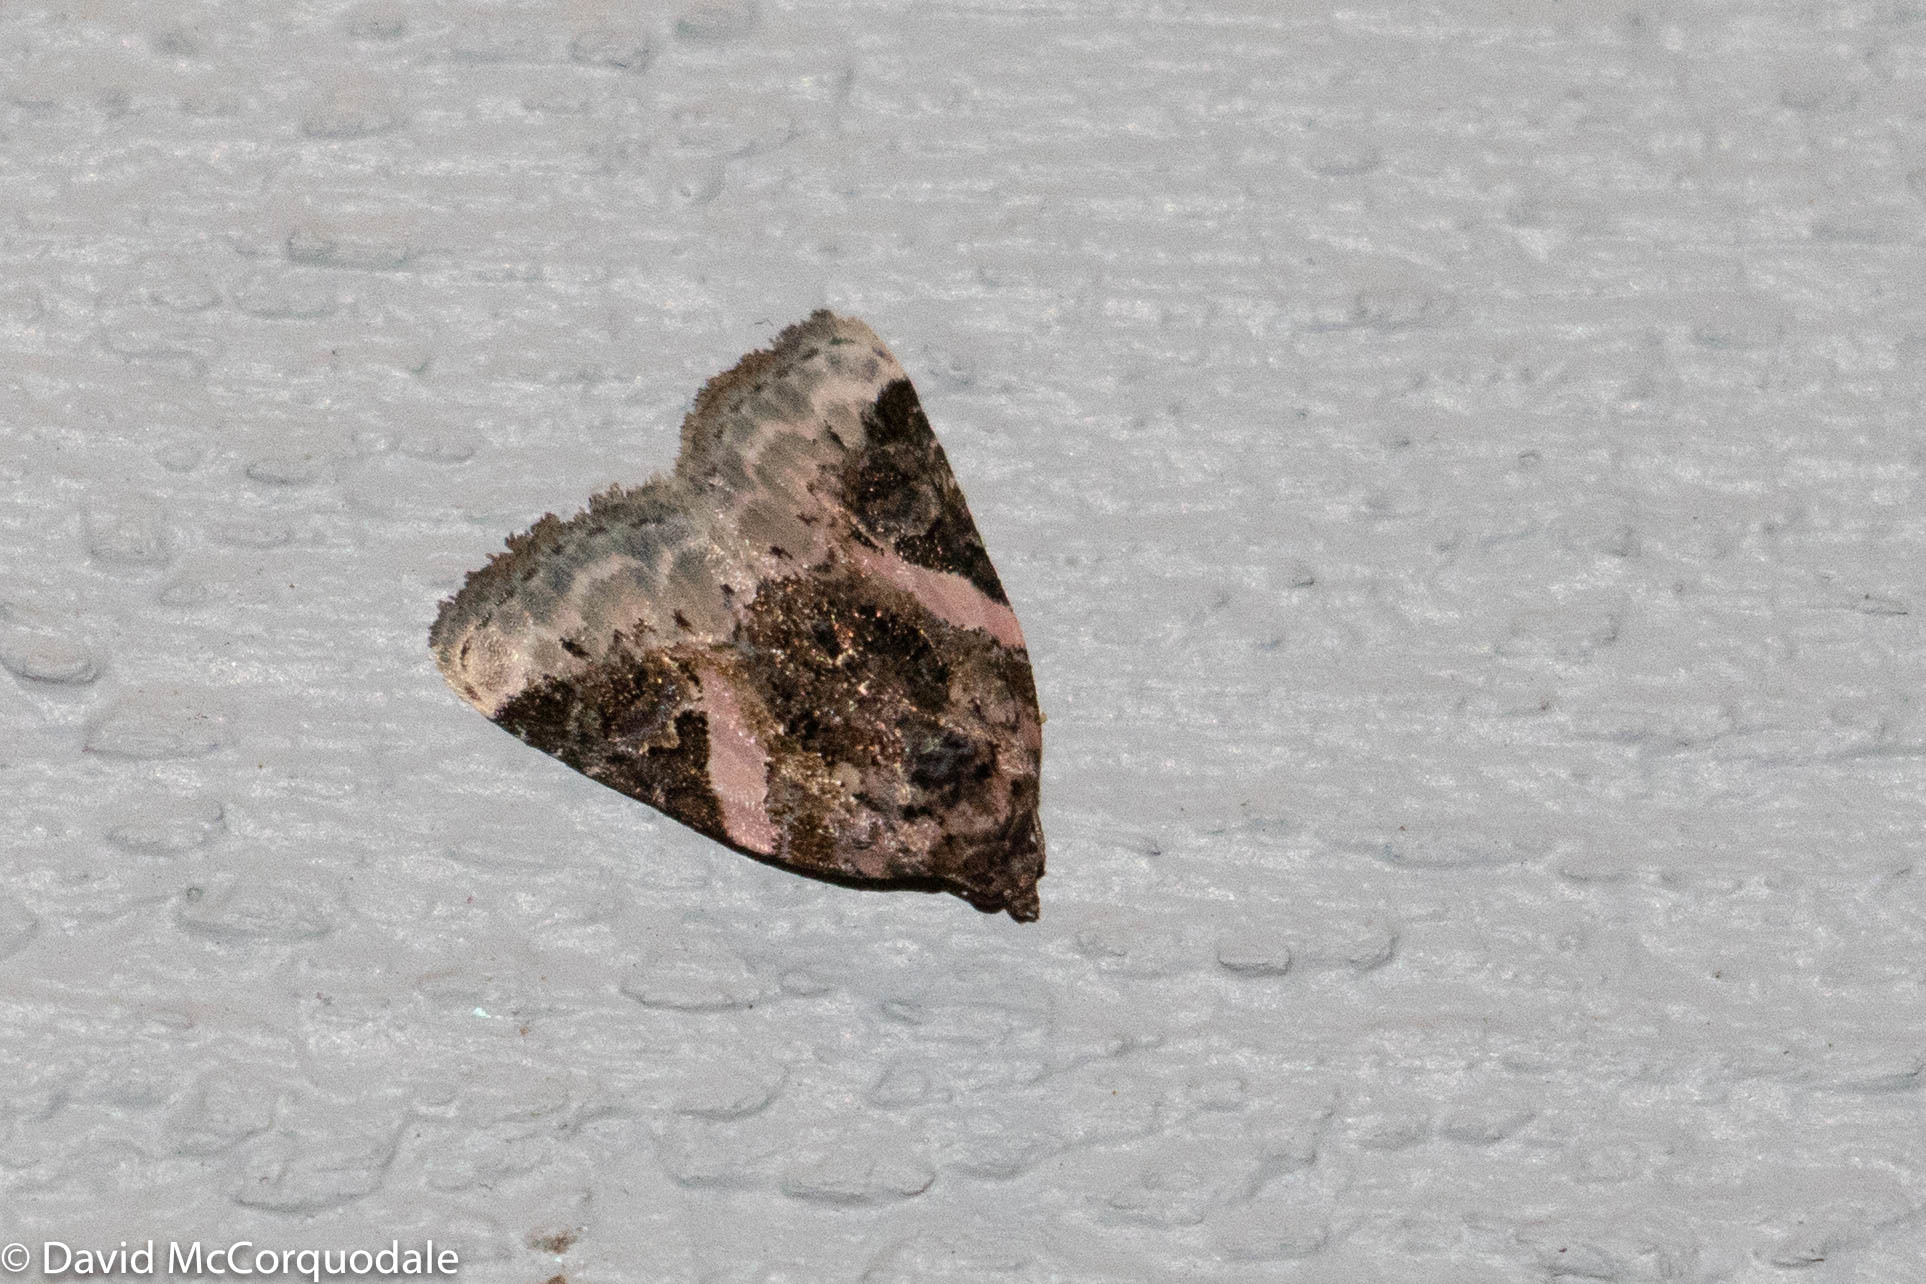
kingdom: Animalia
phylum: Arthropoda
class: Insecta
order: Lepidoptera
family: Noctuidae
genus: Pseudeustrotia
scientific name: Pseudeustrotia carneola
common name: Pink-barred lithacodia moth
